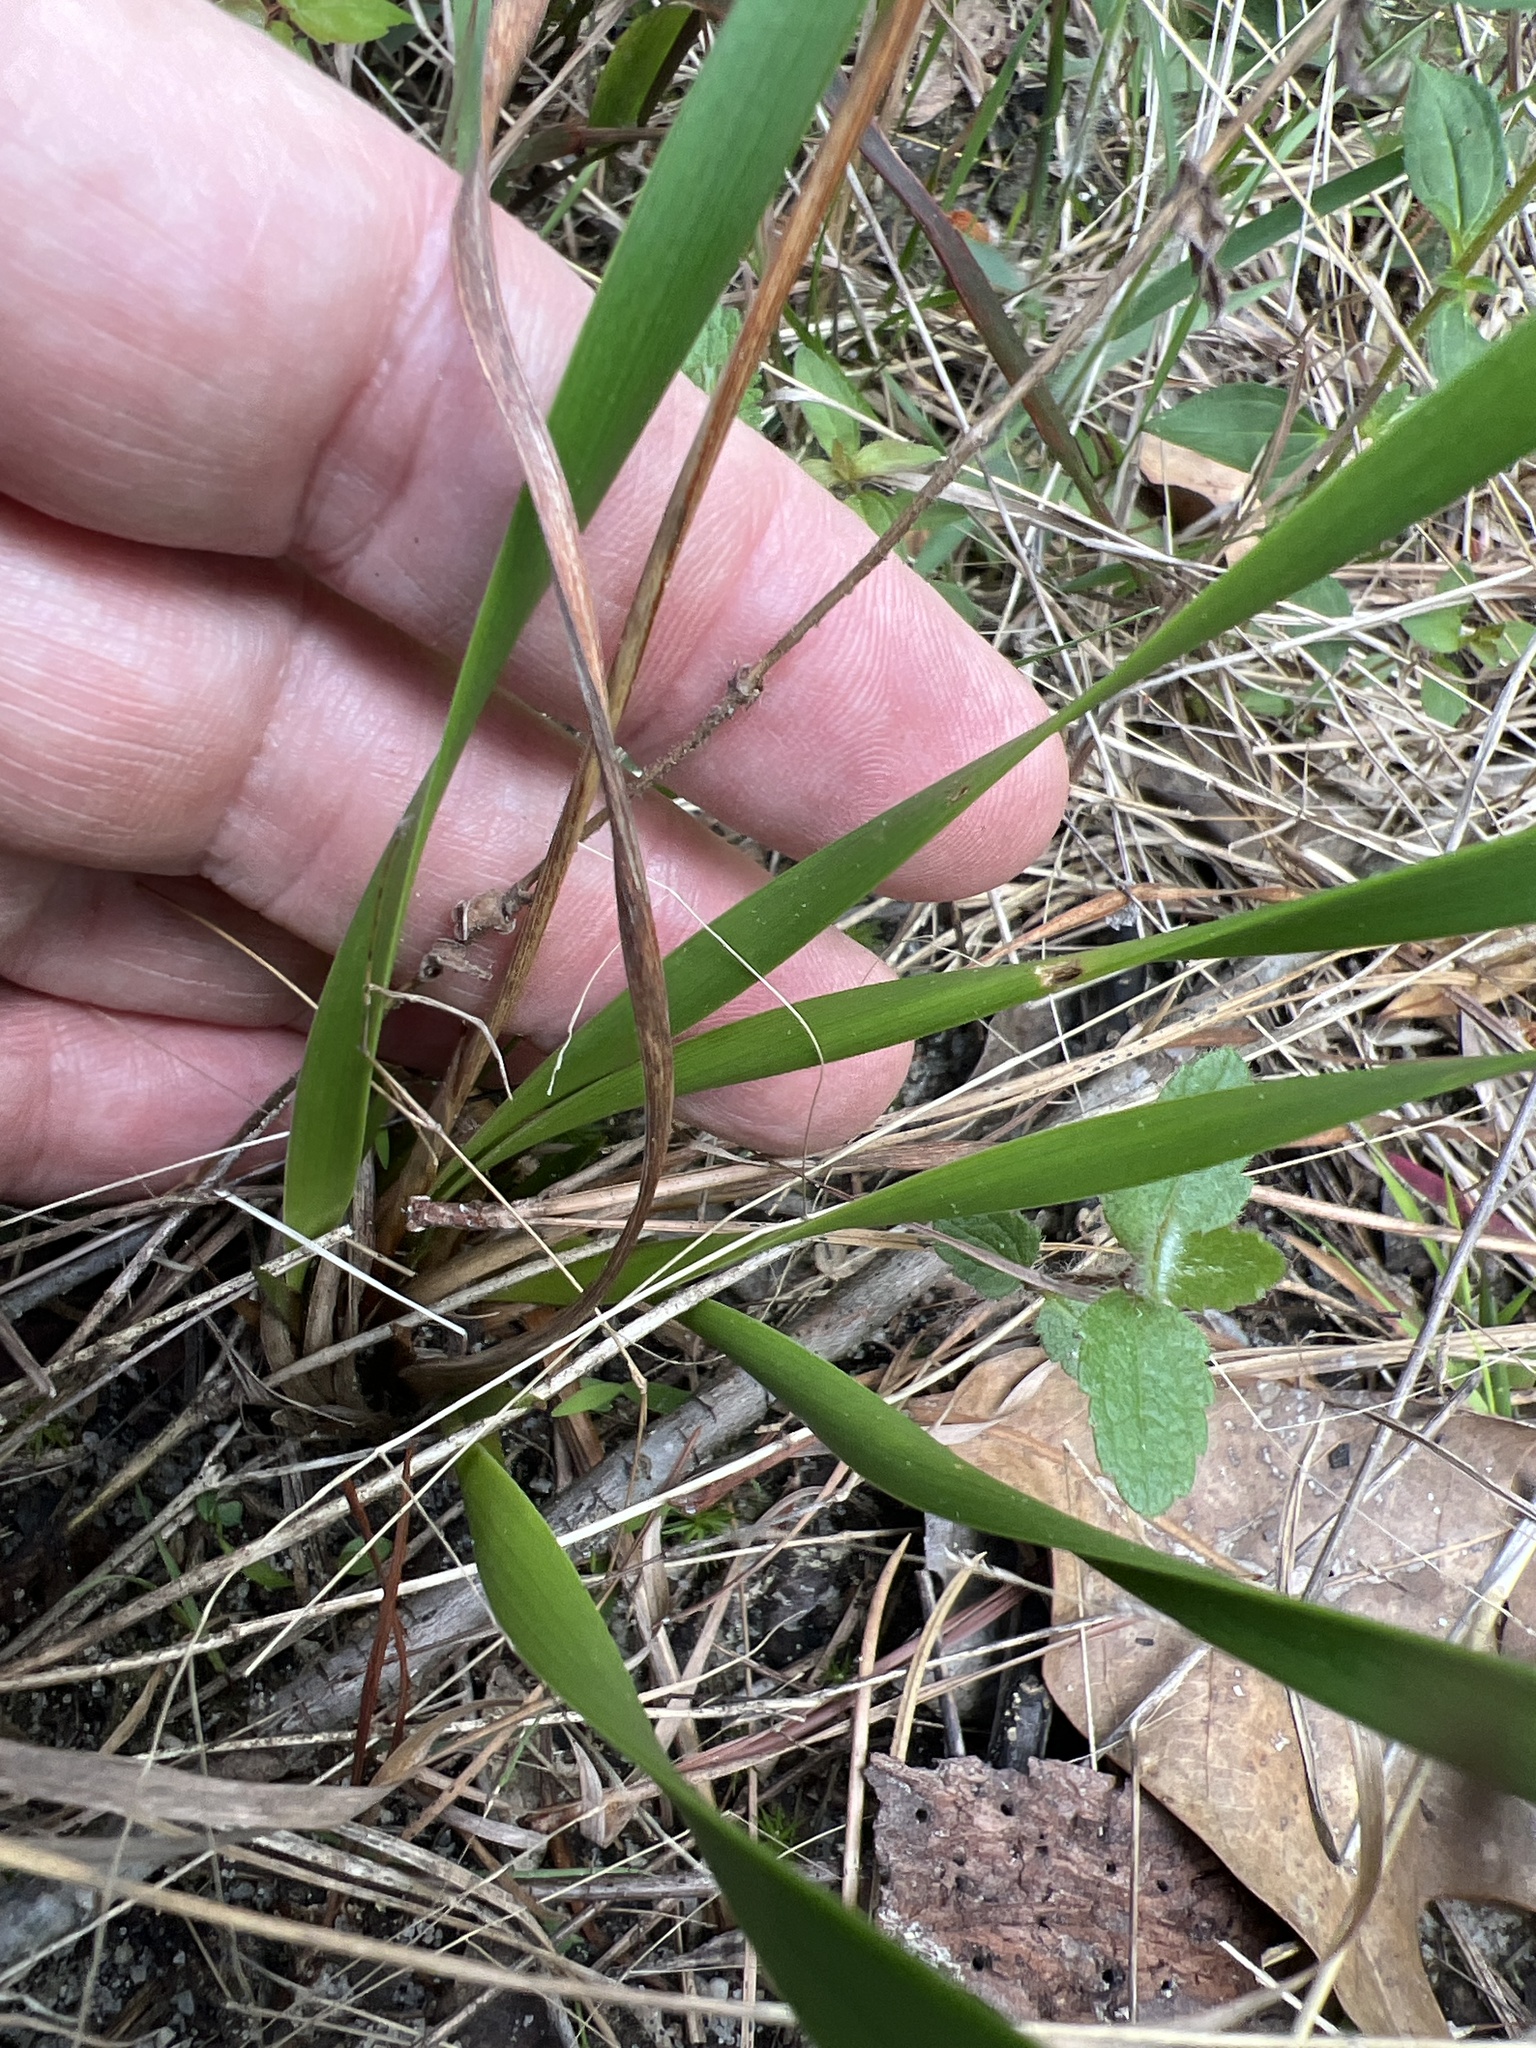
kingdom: Plantae
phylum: Tracheophyta
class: Liliopsida
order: Poales
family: Xyridaceae
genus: Xyris
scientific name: Xyris caroliniana
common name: Carolina yellow-eyed-grass
